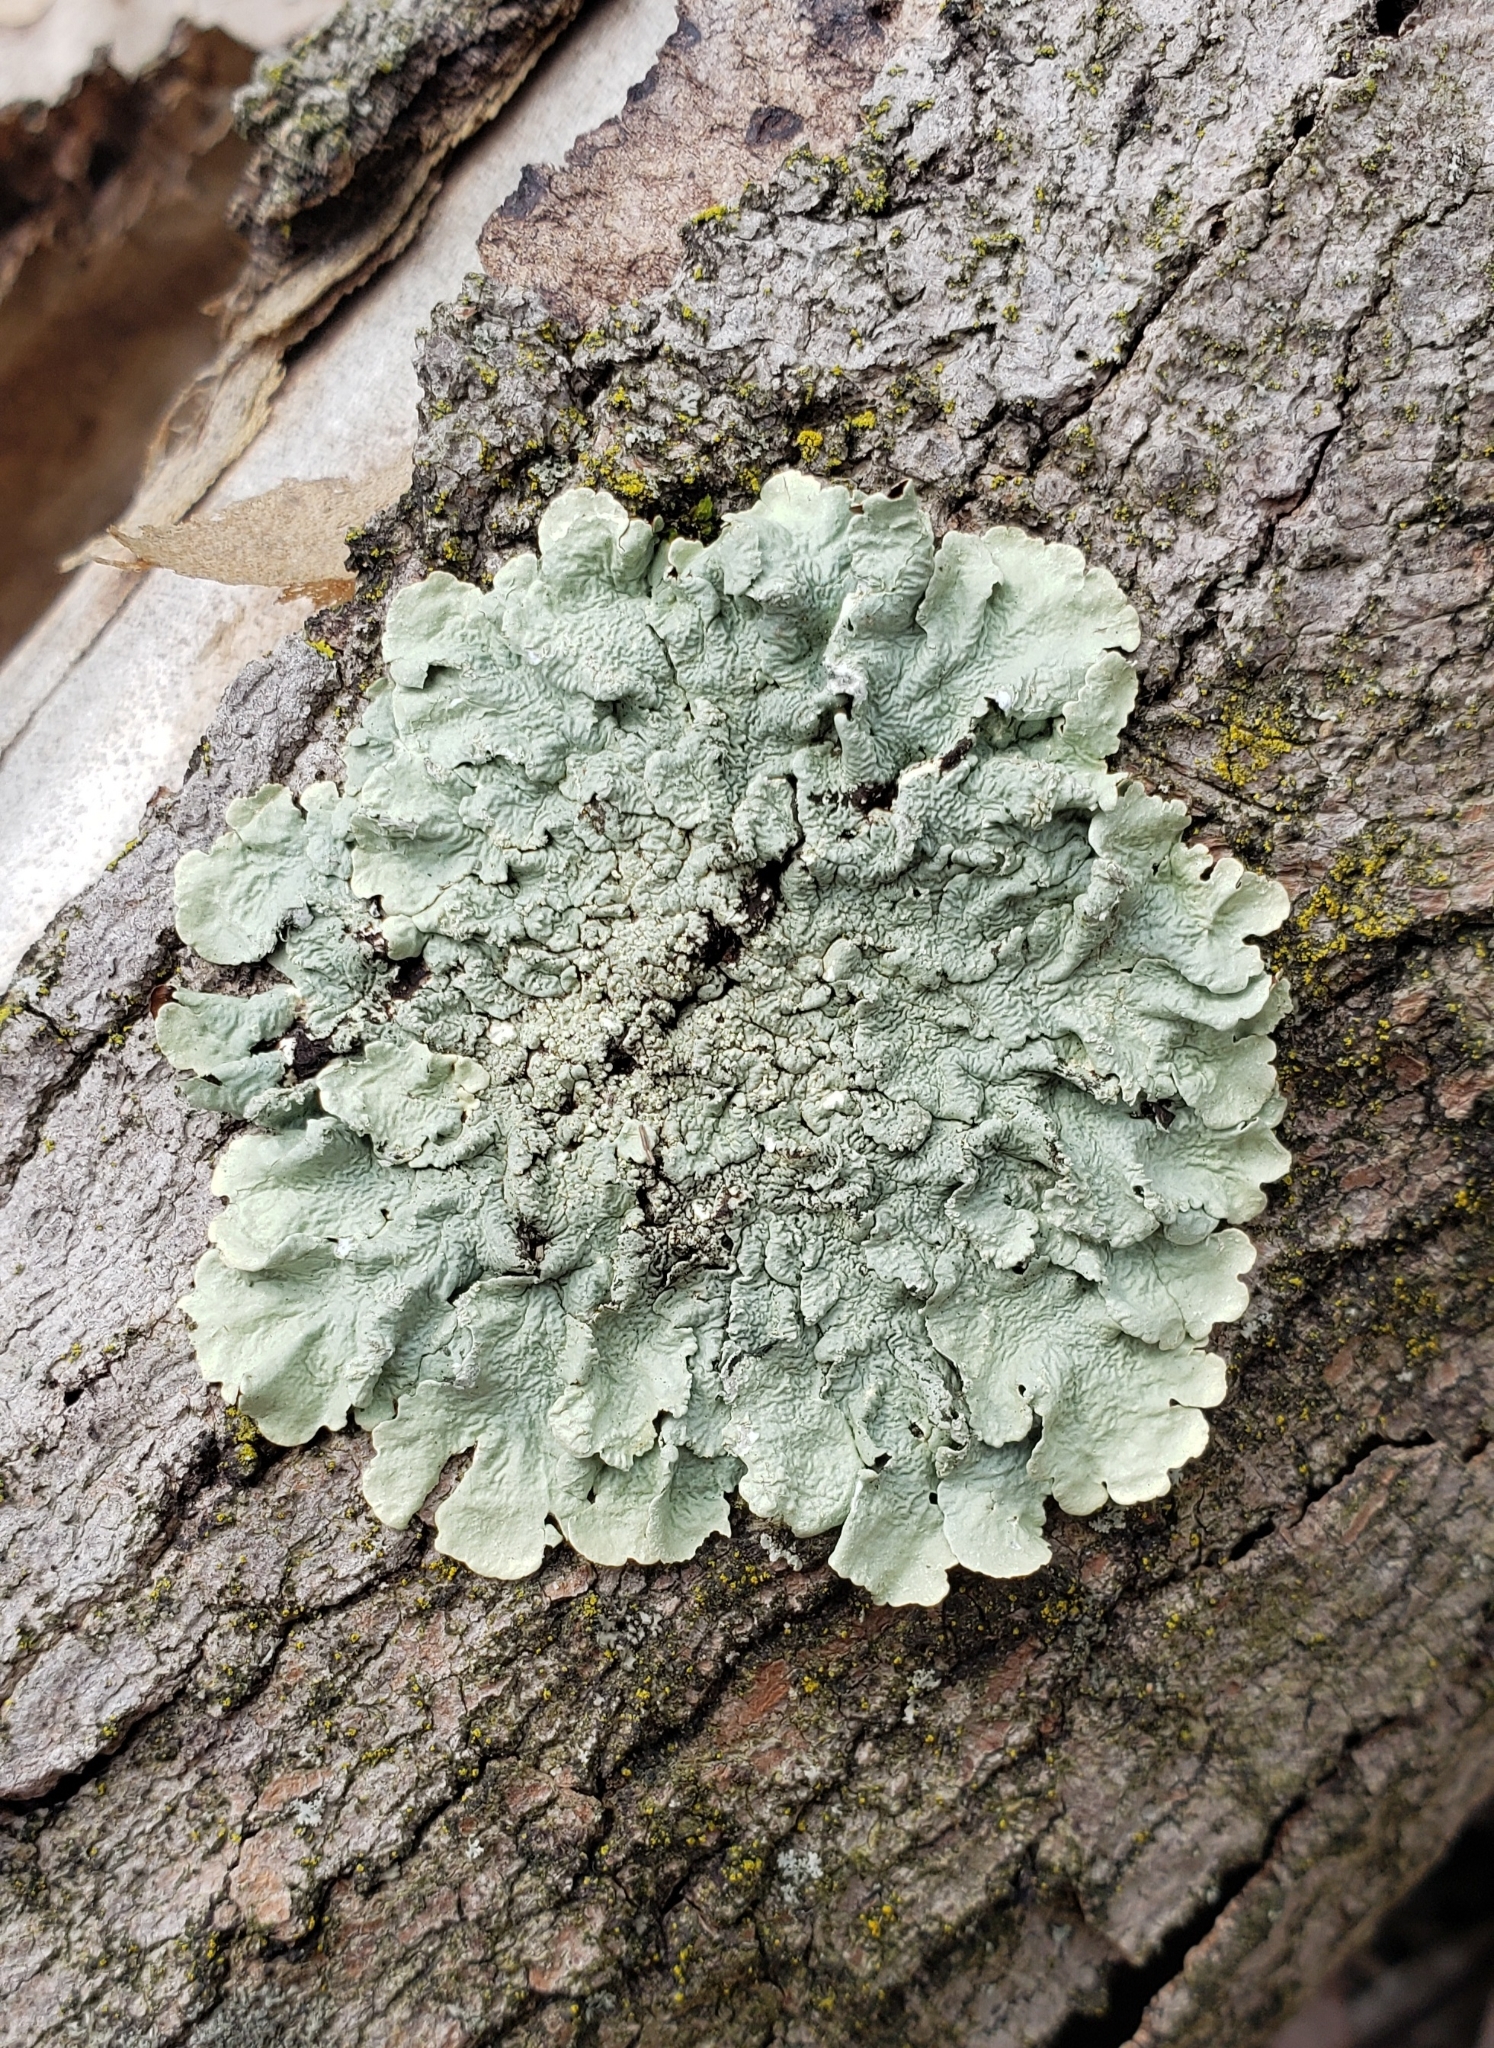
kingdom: Fungi
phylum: Ascomycota
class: Lecanoromycetes
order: Lecanorales
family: Parmeliaceae
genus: Flavoparmelia
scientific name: Flavoparmelia caperata
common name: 40-mile per hour lichen
